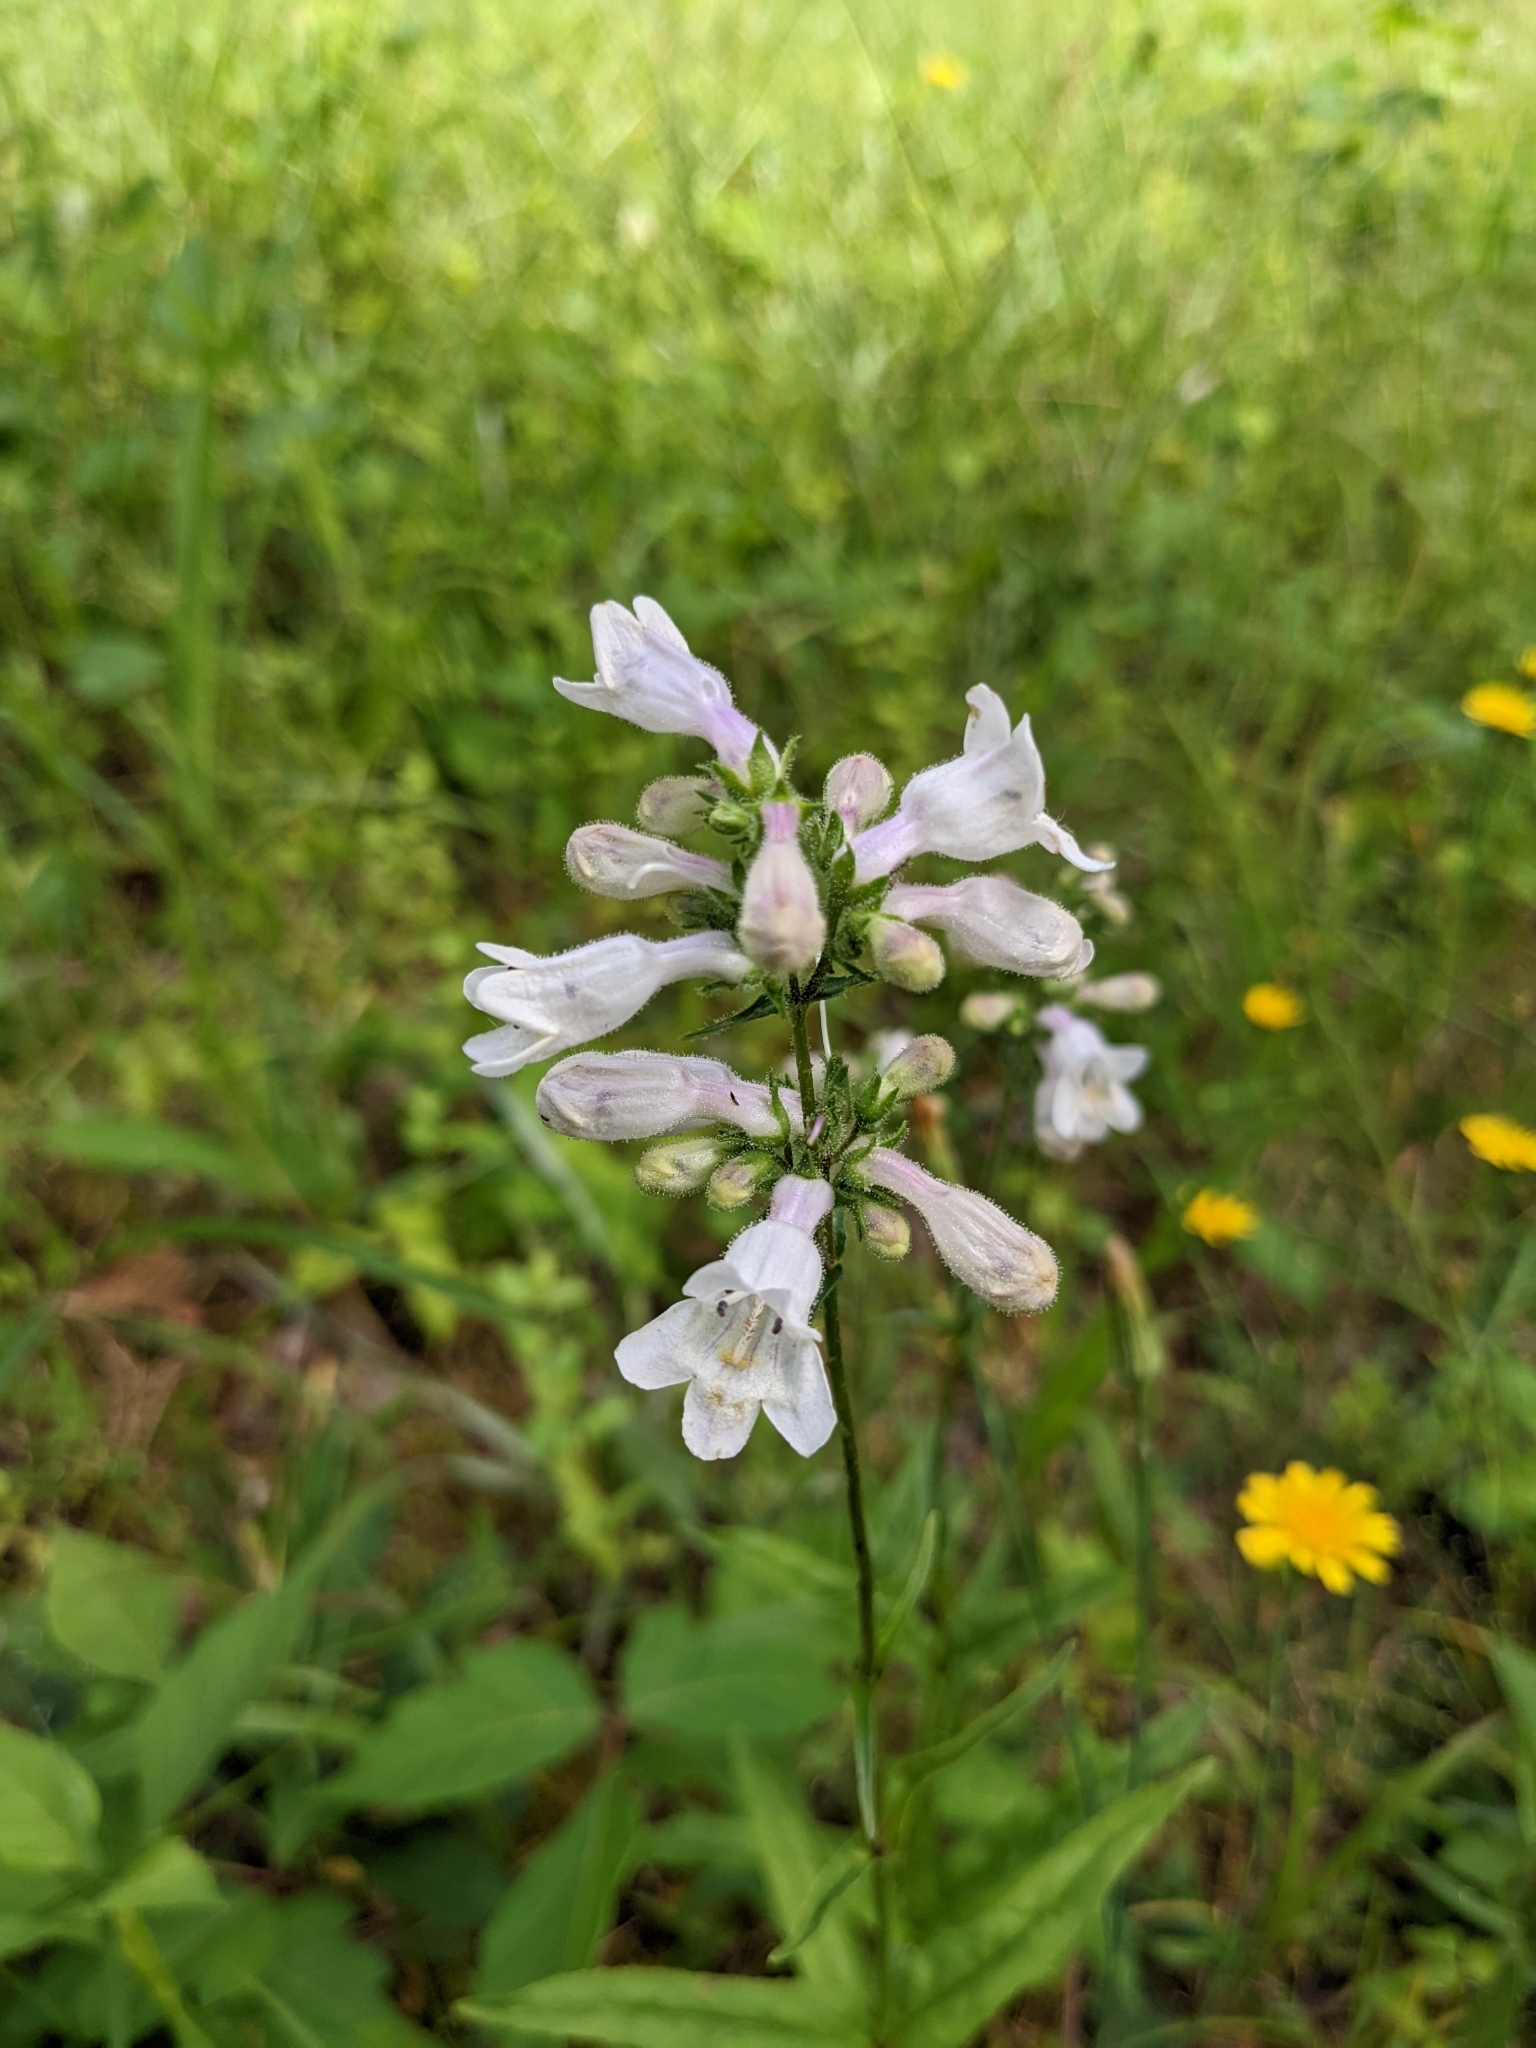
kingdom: Plantae
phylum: Tracheophyta
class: Magnoliopsida
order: Lamiales
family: Plantaginaceae
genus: Penstemon
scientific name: Penstemon digitalis
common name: Foxglove beardtongue
